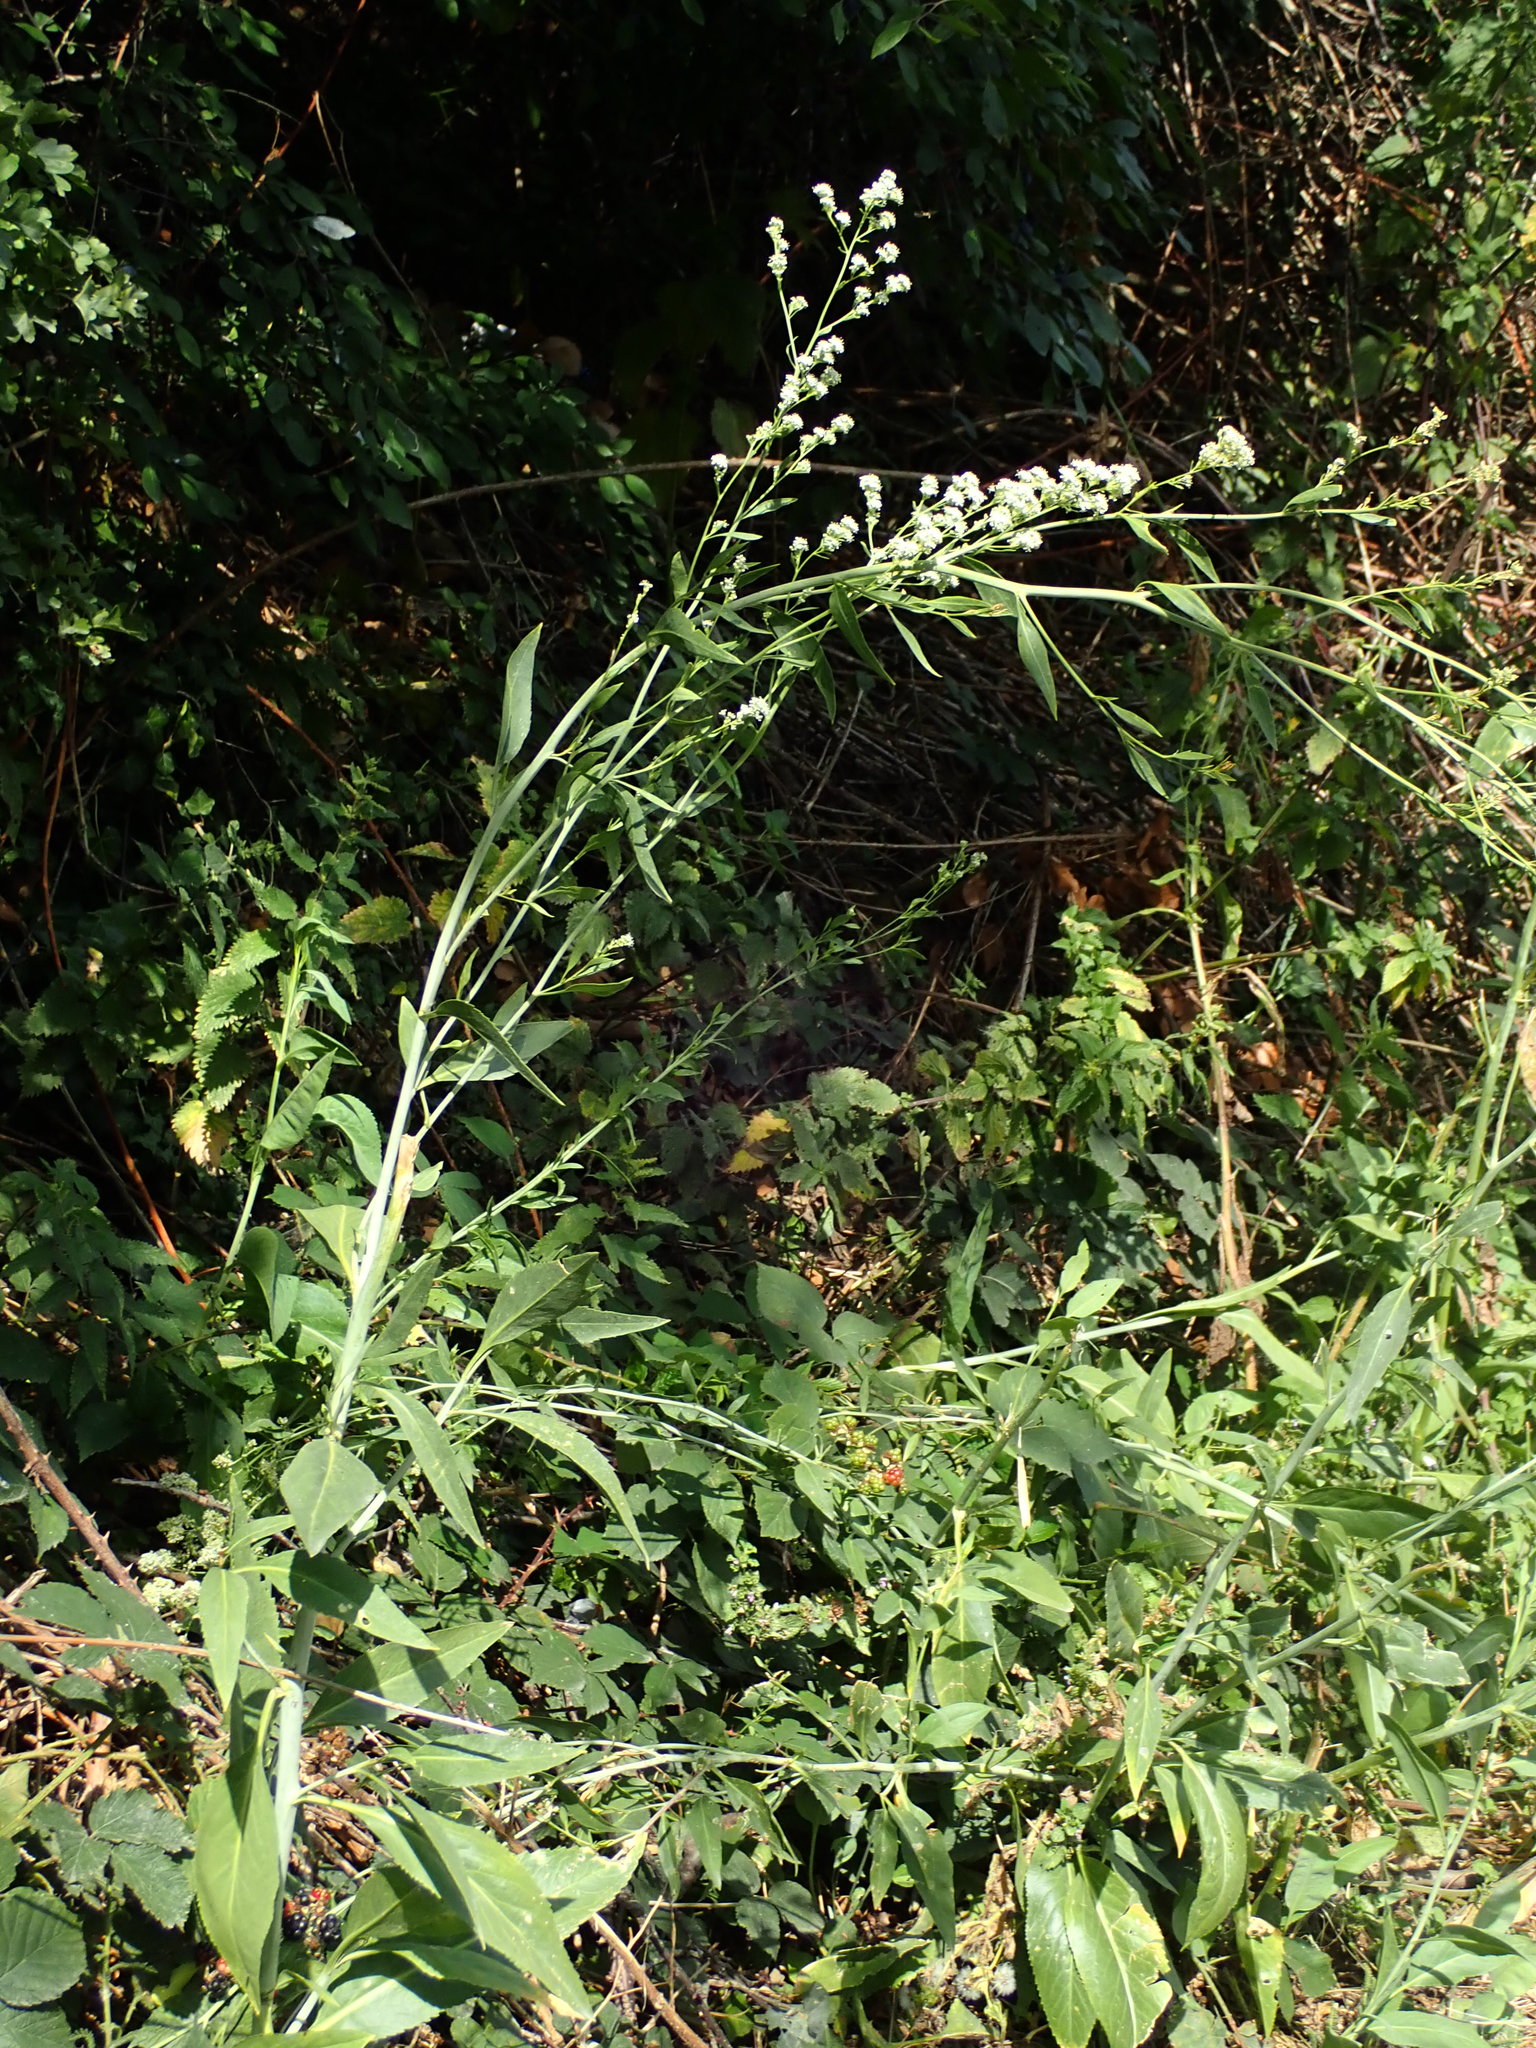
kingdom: Plantae
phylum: Tracheophyta
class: Magnoliopsida
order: Brassicales
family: Brassicaceae
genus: Lepidium
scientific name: Lepidium latifolium
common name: Dittander
